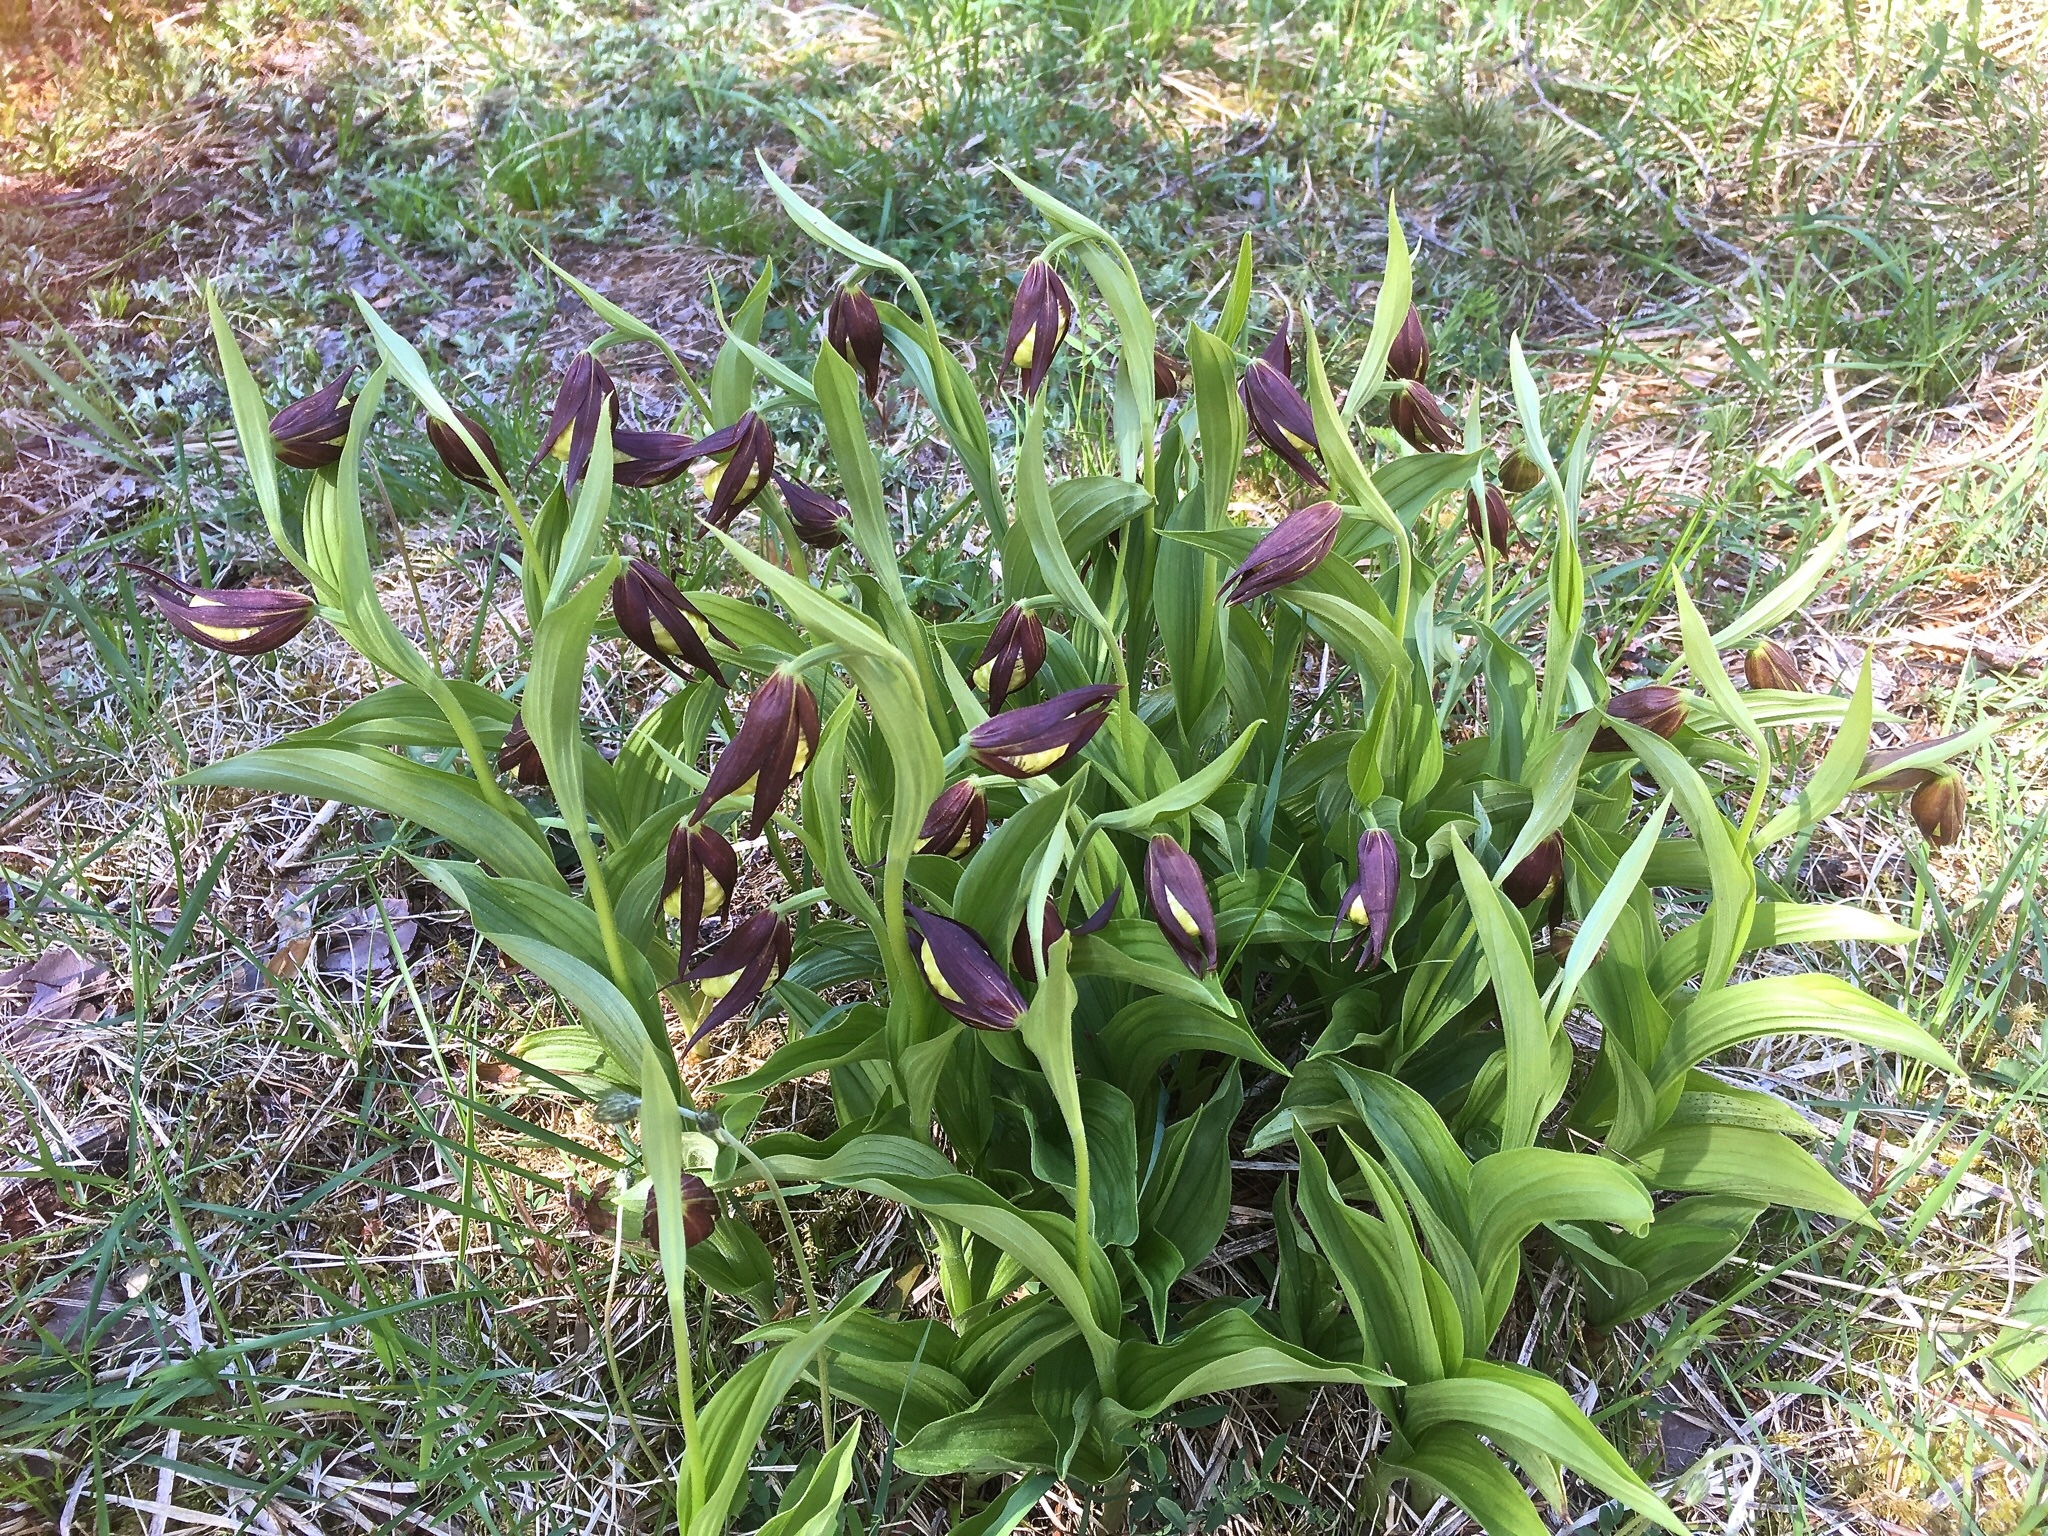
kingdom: Plantae
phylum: Tracheophyta
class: Liliopsida
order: Asparagales
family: Orchidaceae
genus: Cypripedium
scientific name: Cypripedium calceolus
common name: Lady's-slipper
